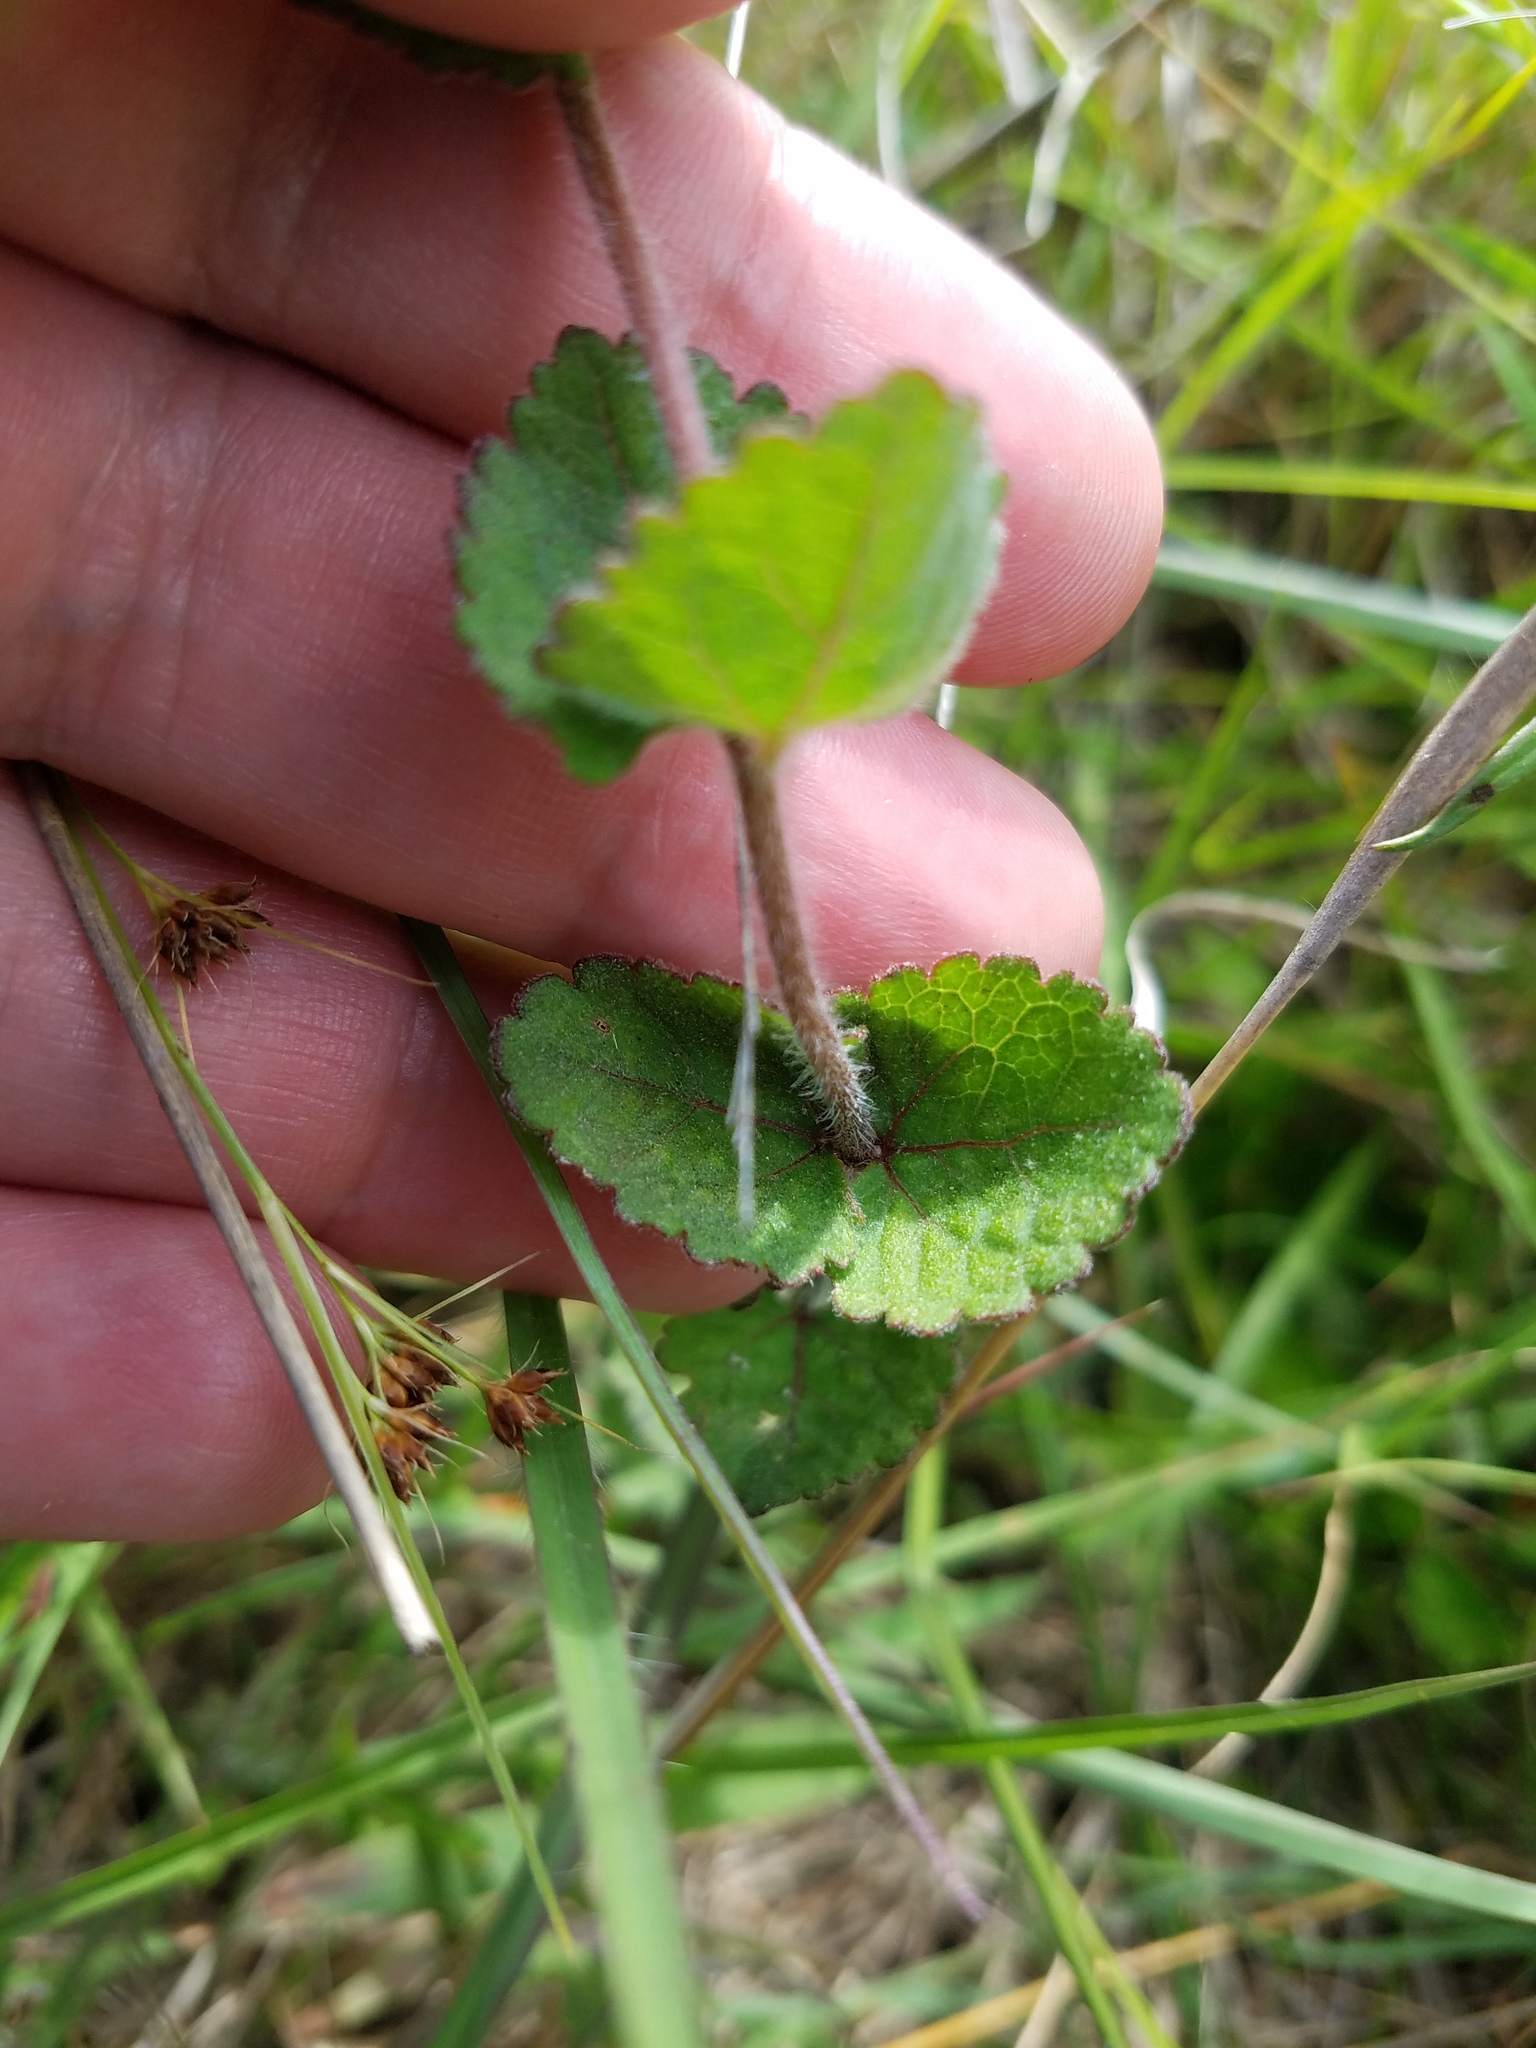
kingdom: Plantae
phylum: Tracheophyta
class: Magnoliopsida
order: Asterales
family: Asteraceae
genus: Eupatorium
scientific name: Eupatorium rotundifolium
